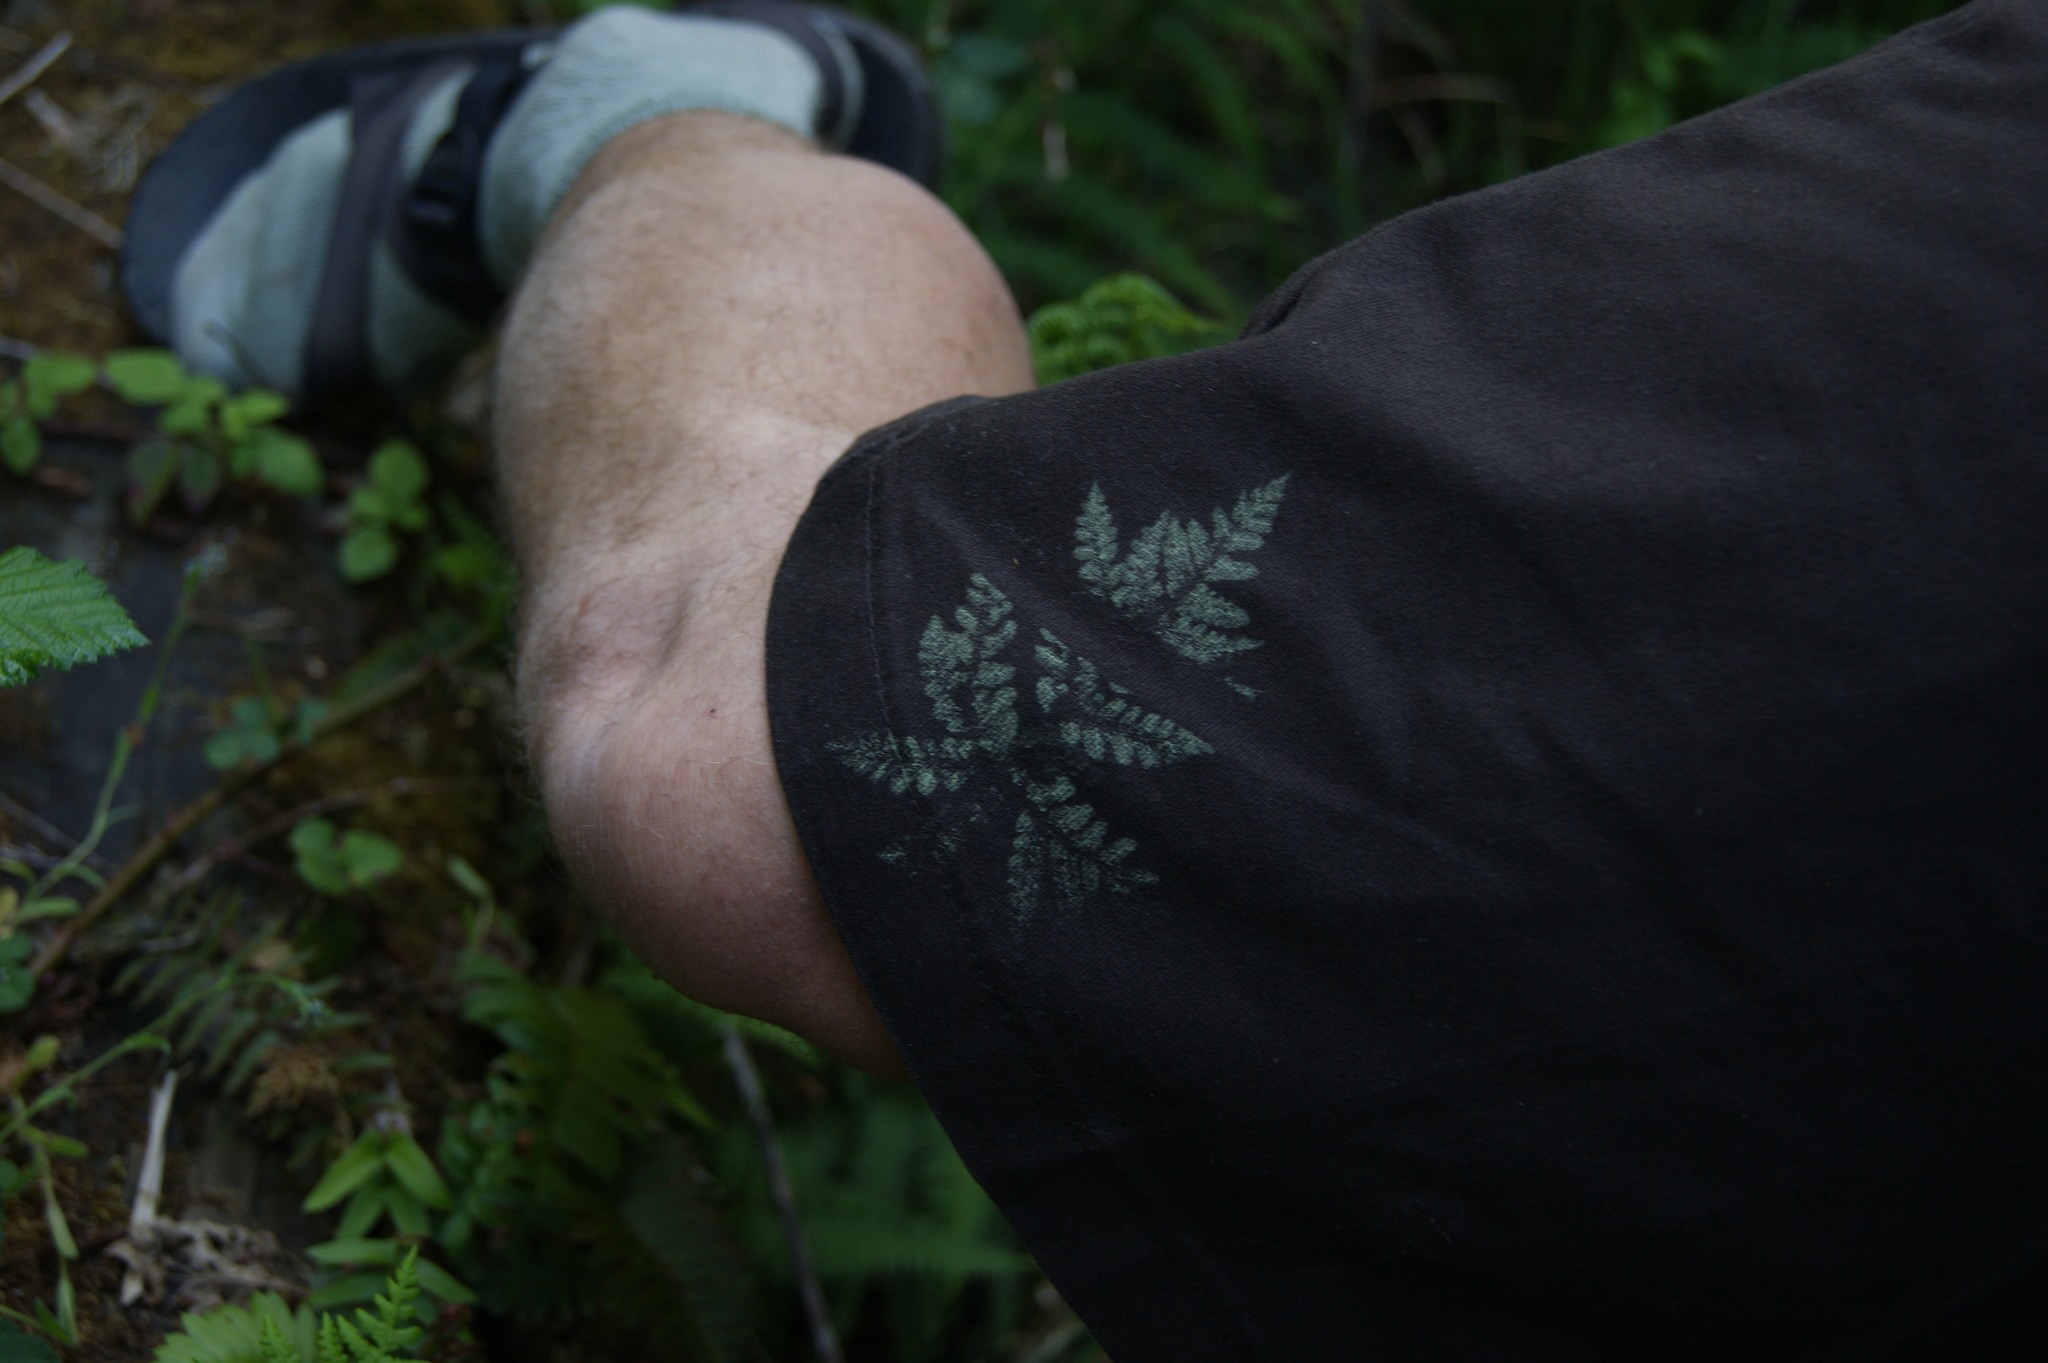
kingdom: Plantae
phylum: Tracheophyta
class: Polypodiopsida
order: Polypodiales
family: Pteridaceae
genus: Pentagramma
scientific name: Pentagramma triangularis
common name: Gold fern
